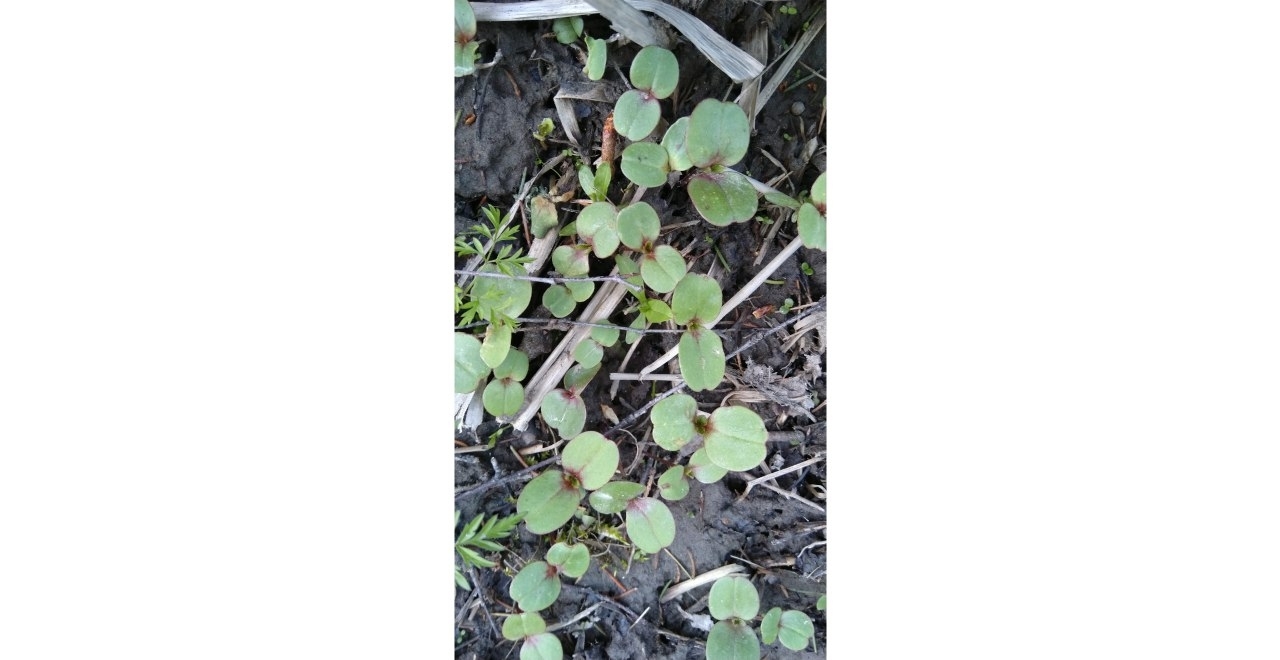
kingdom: Plantae
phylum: Tracheophyta
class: Magnoliopsida
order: Ericales
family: Balsaminaceae
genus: Impatiens
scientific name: Impatiens glandulifera
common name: Himalayan balsam
